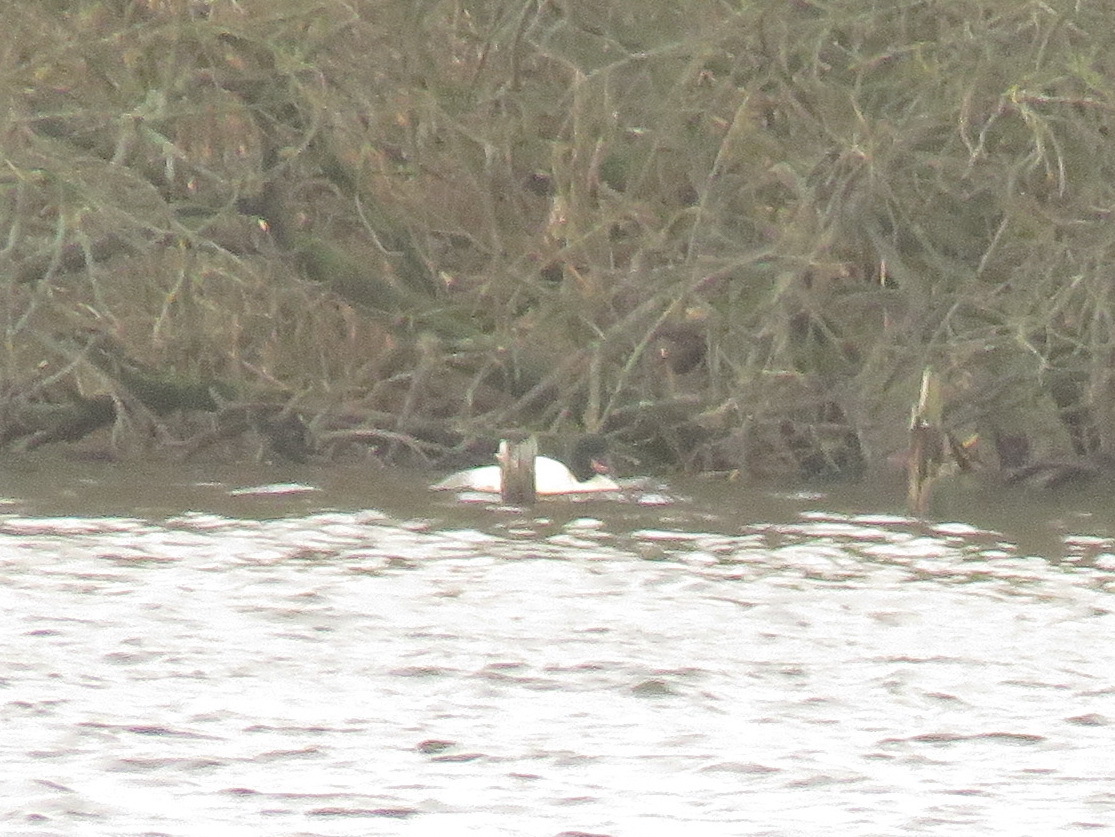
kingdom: Animalia
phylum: Chordata
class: Aves
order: Anseriformes
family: Anatidae
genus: Mergus
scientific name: Mergus merganser
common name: Common merganser
